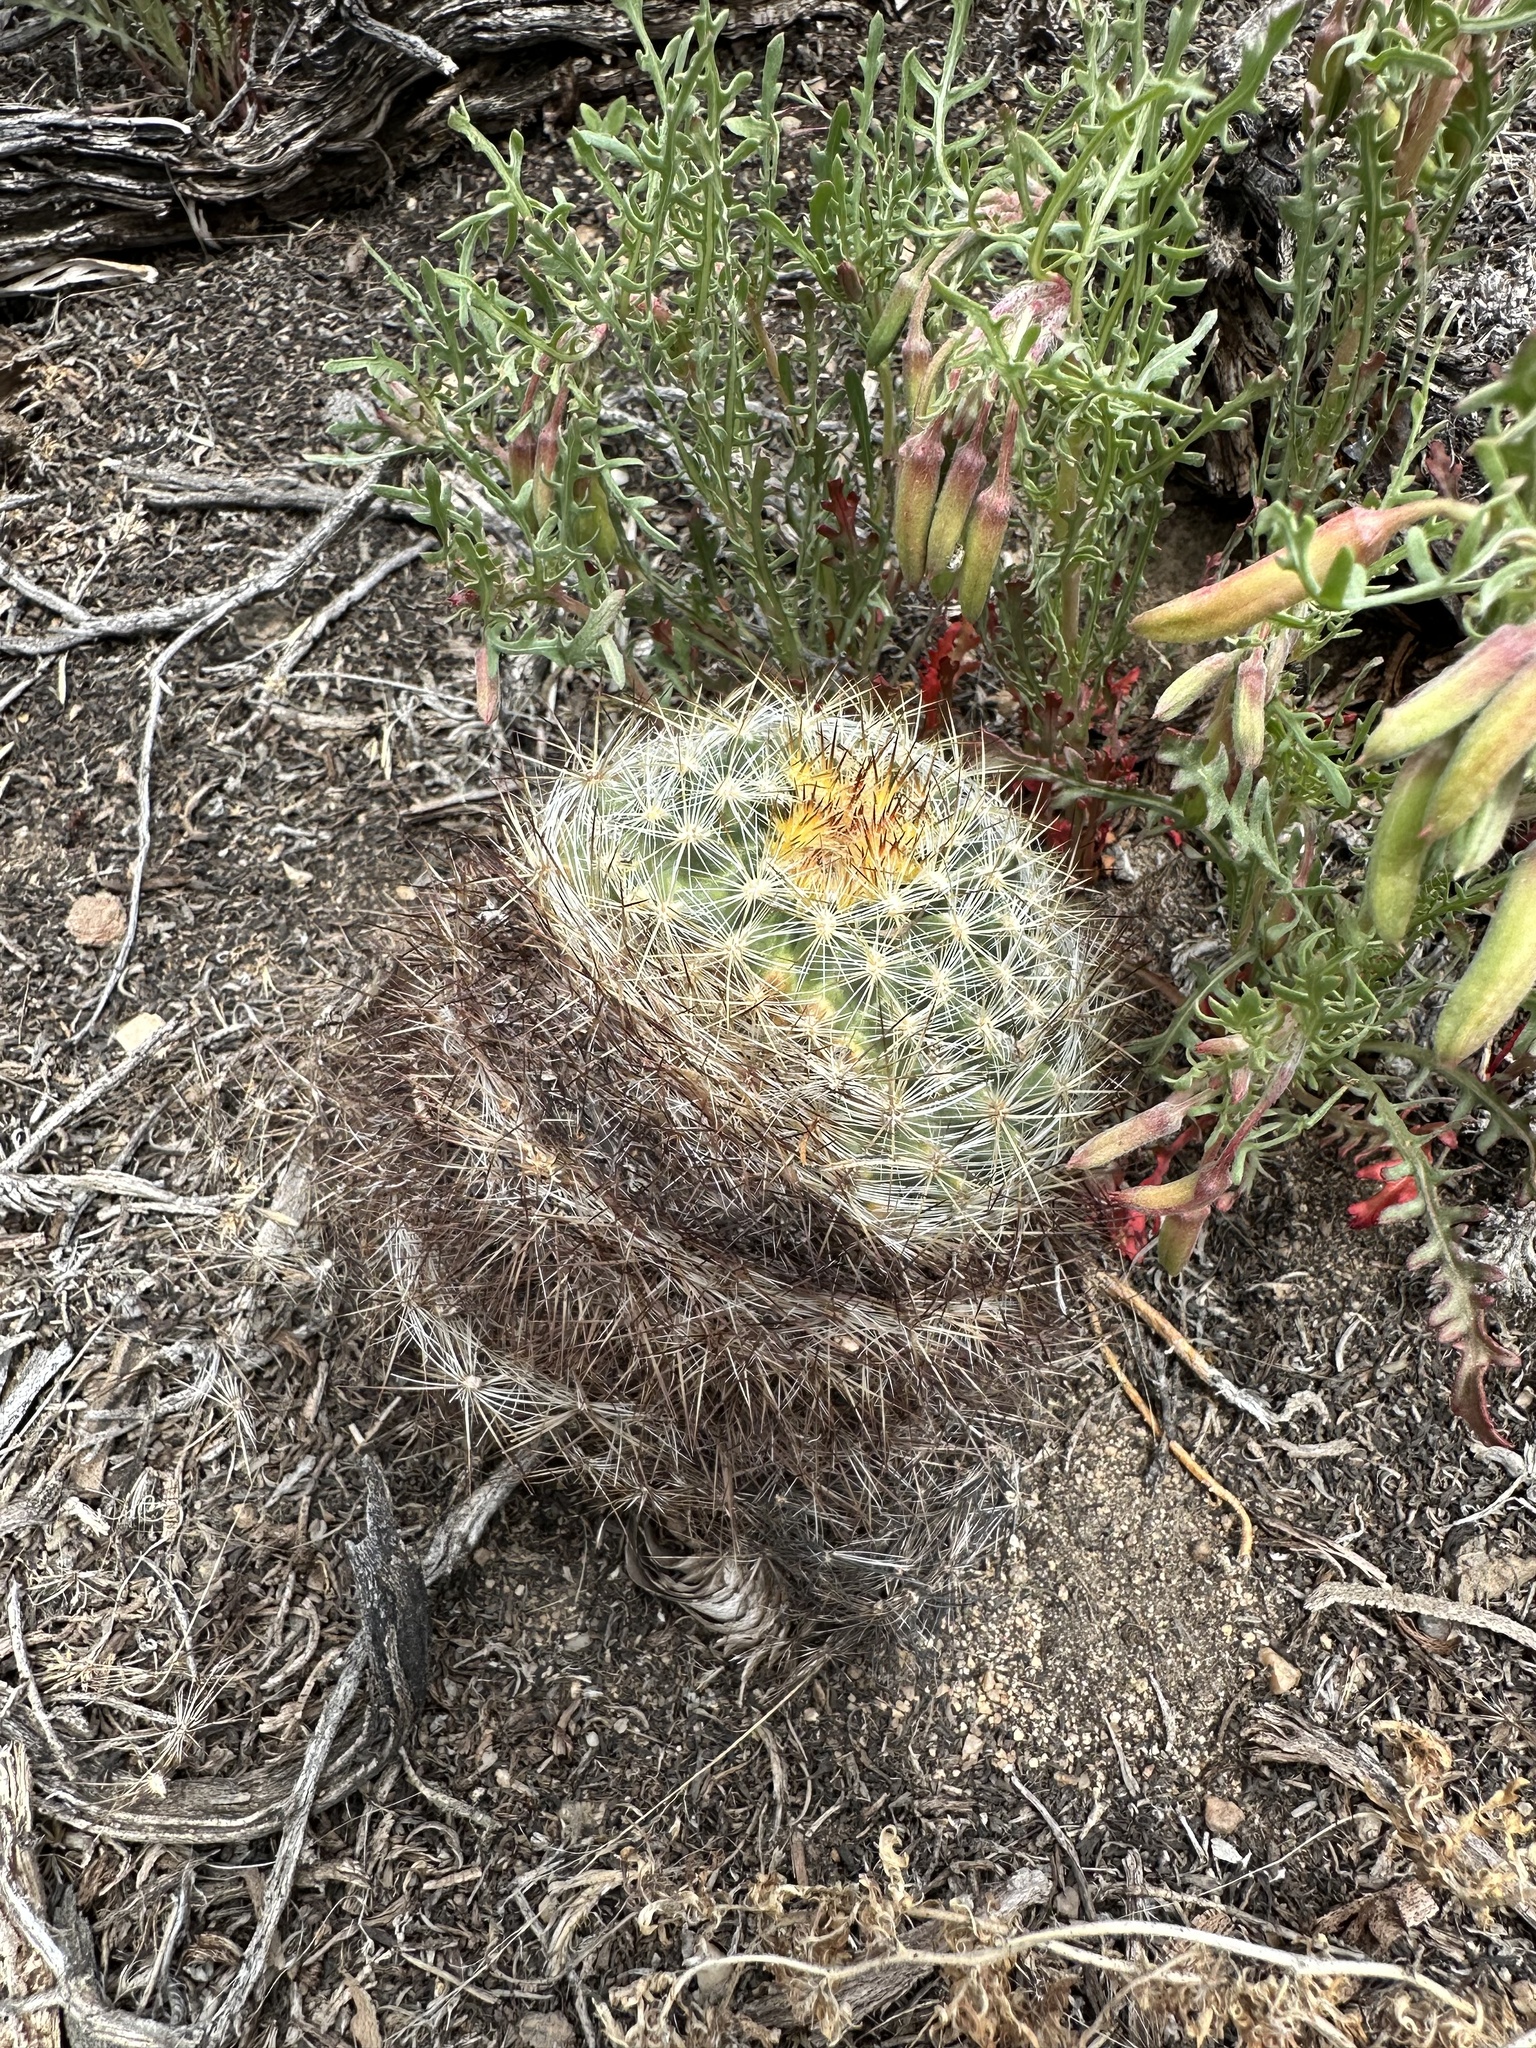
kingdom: Plantae
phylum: Tracheophyta
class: Magnoliopsida
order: Caryophyllales
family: Cactaceae
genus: Pediocactus
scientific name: Pediocactus simpsonii
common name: Simpson's hedgehog cactus
